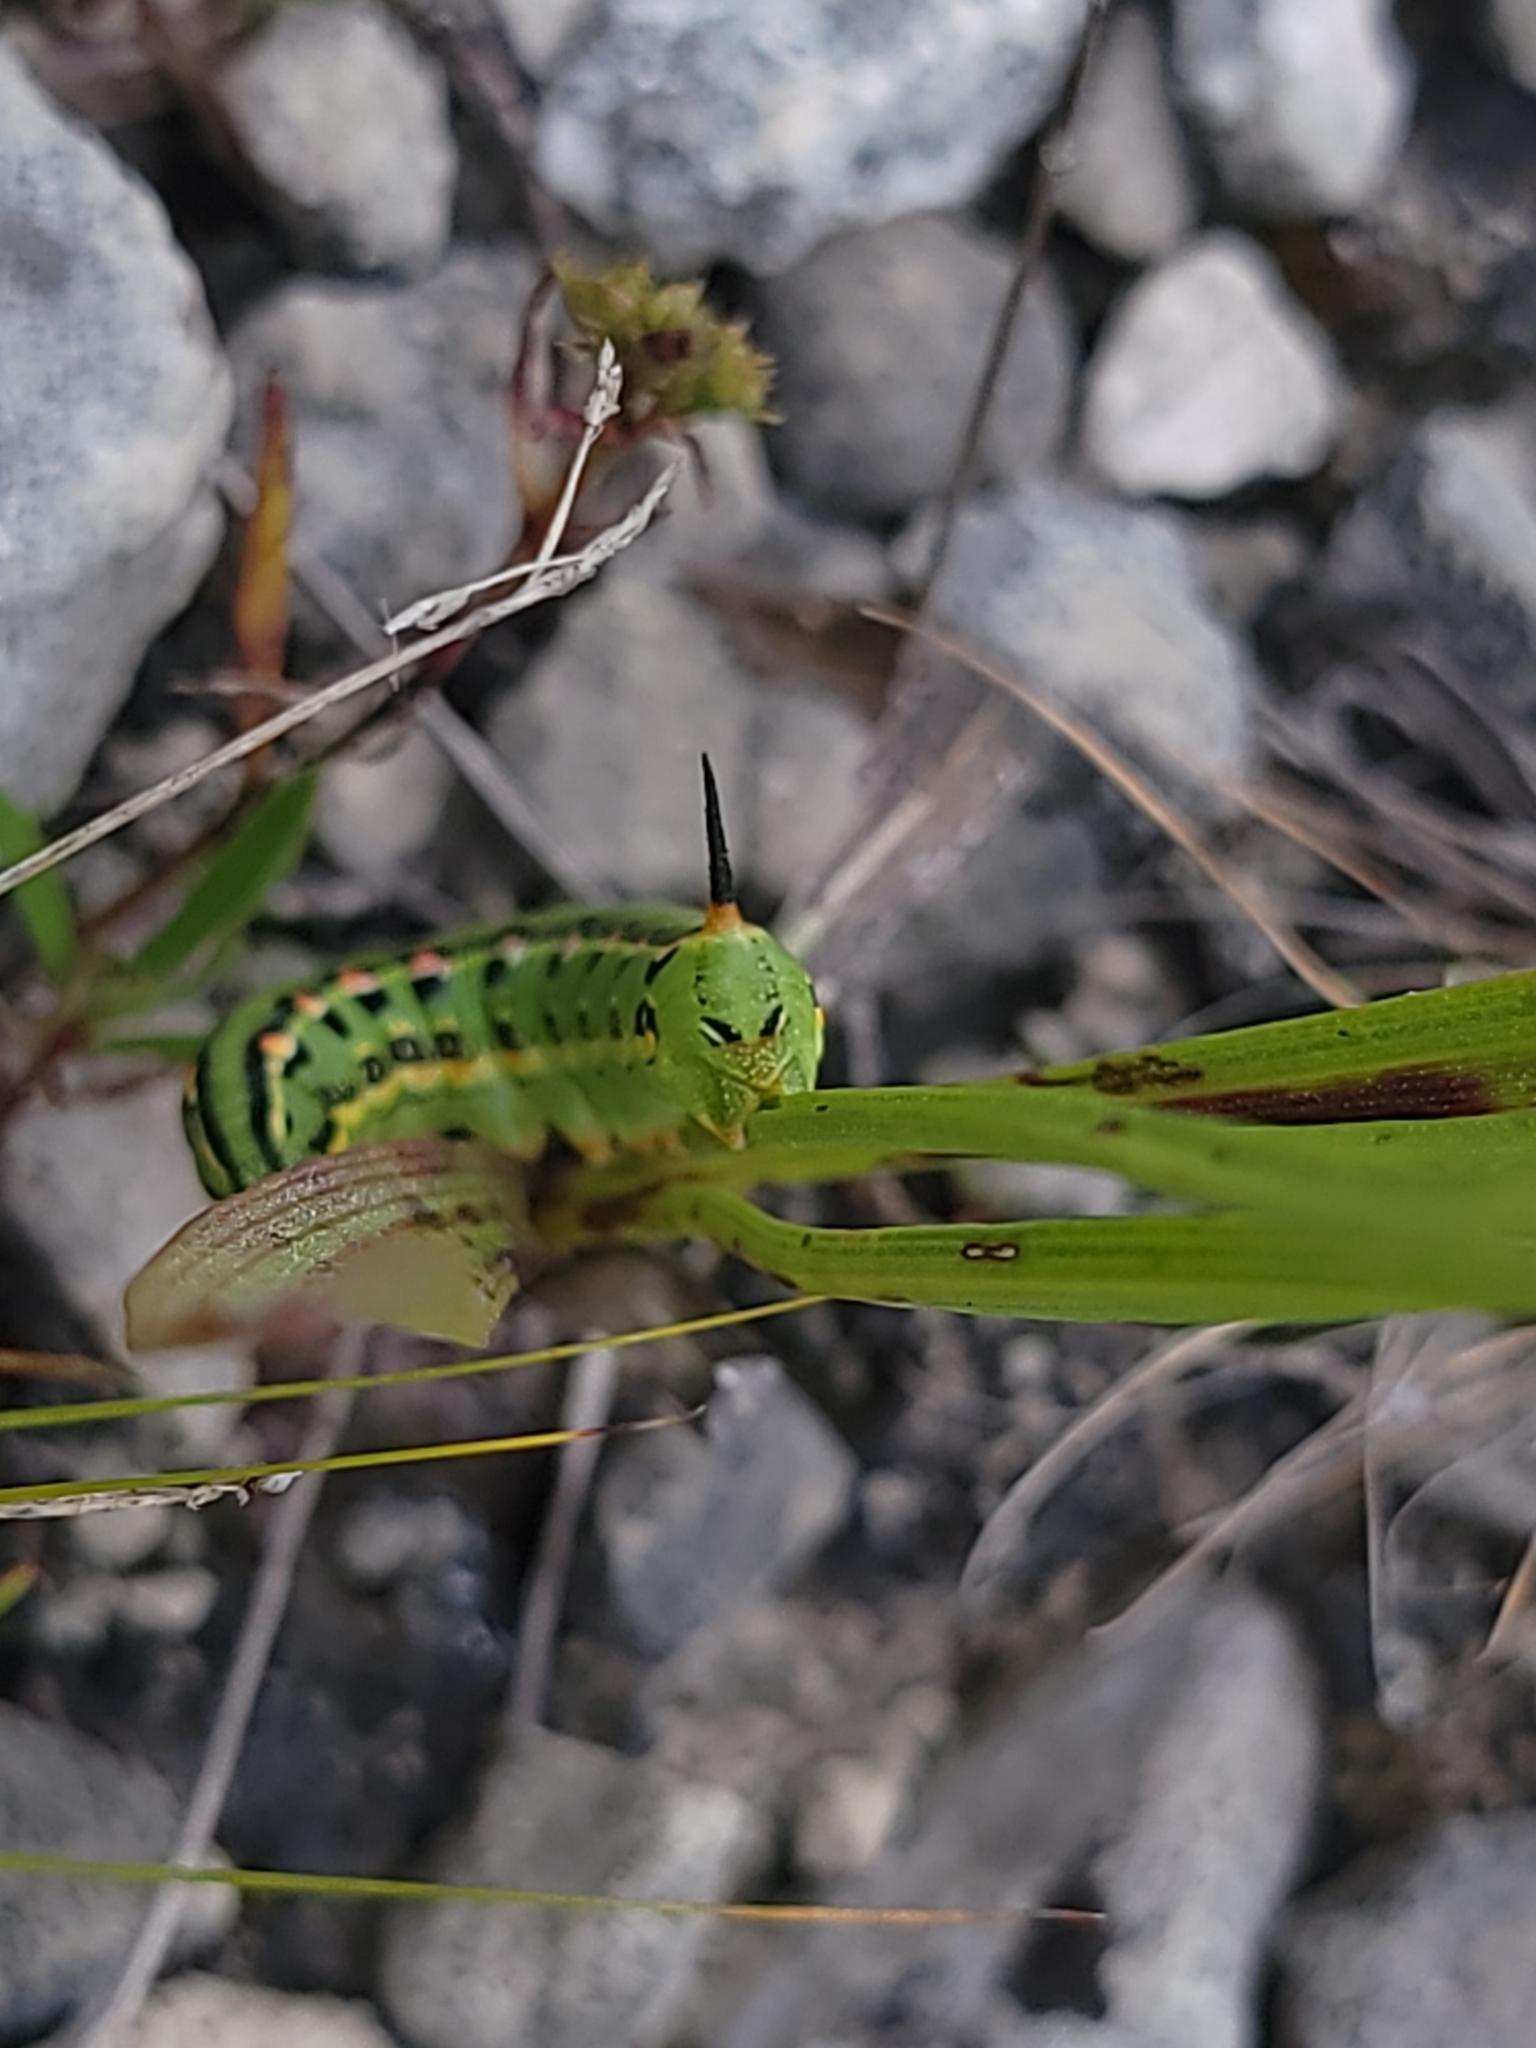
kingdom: Animalia
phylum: Arthropoda
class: Insecta
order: Lepidoptera
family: Sphingidae
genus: Hyles
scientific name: Hyles lineata
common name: White-lined sphinx
